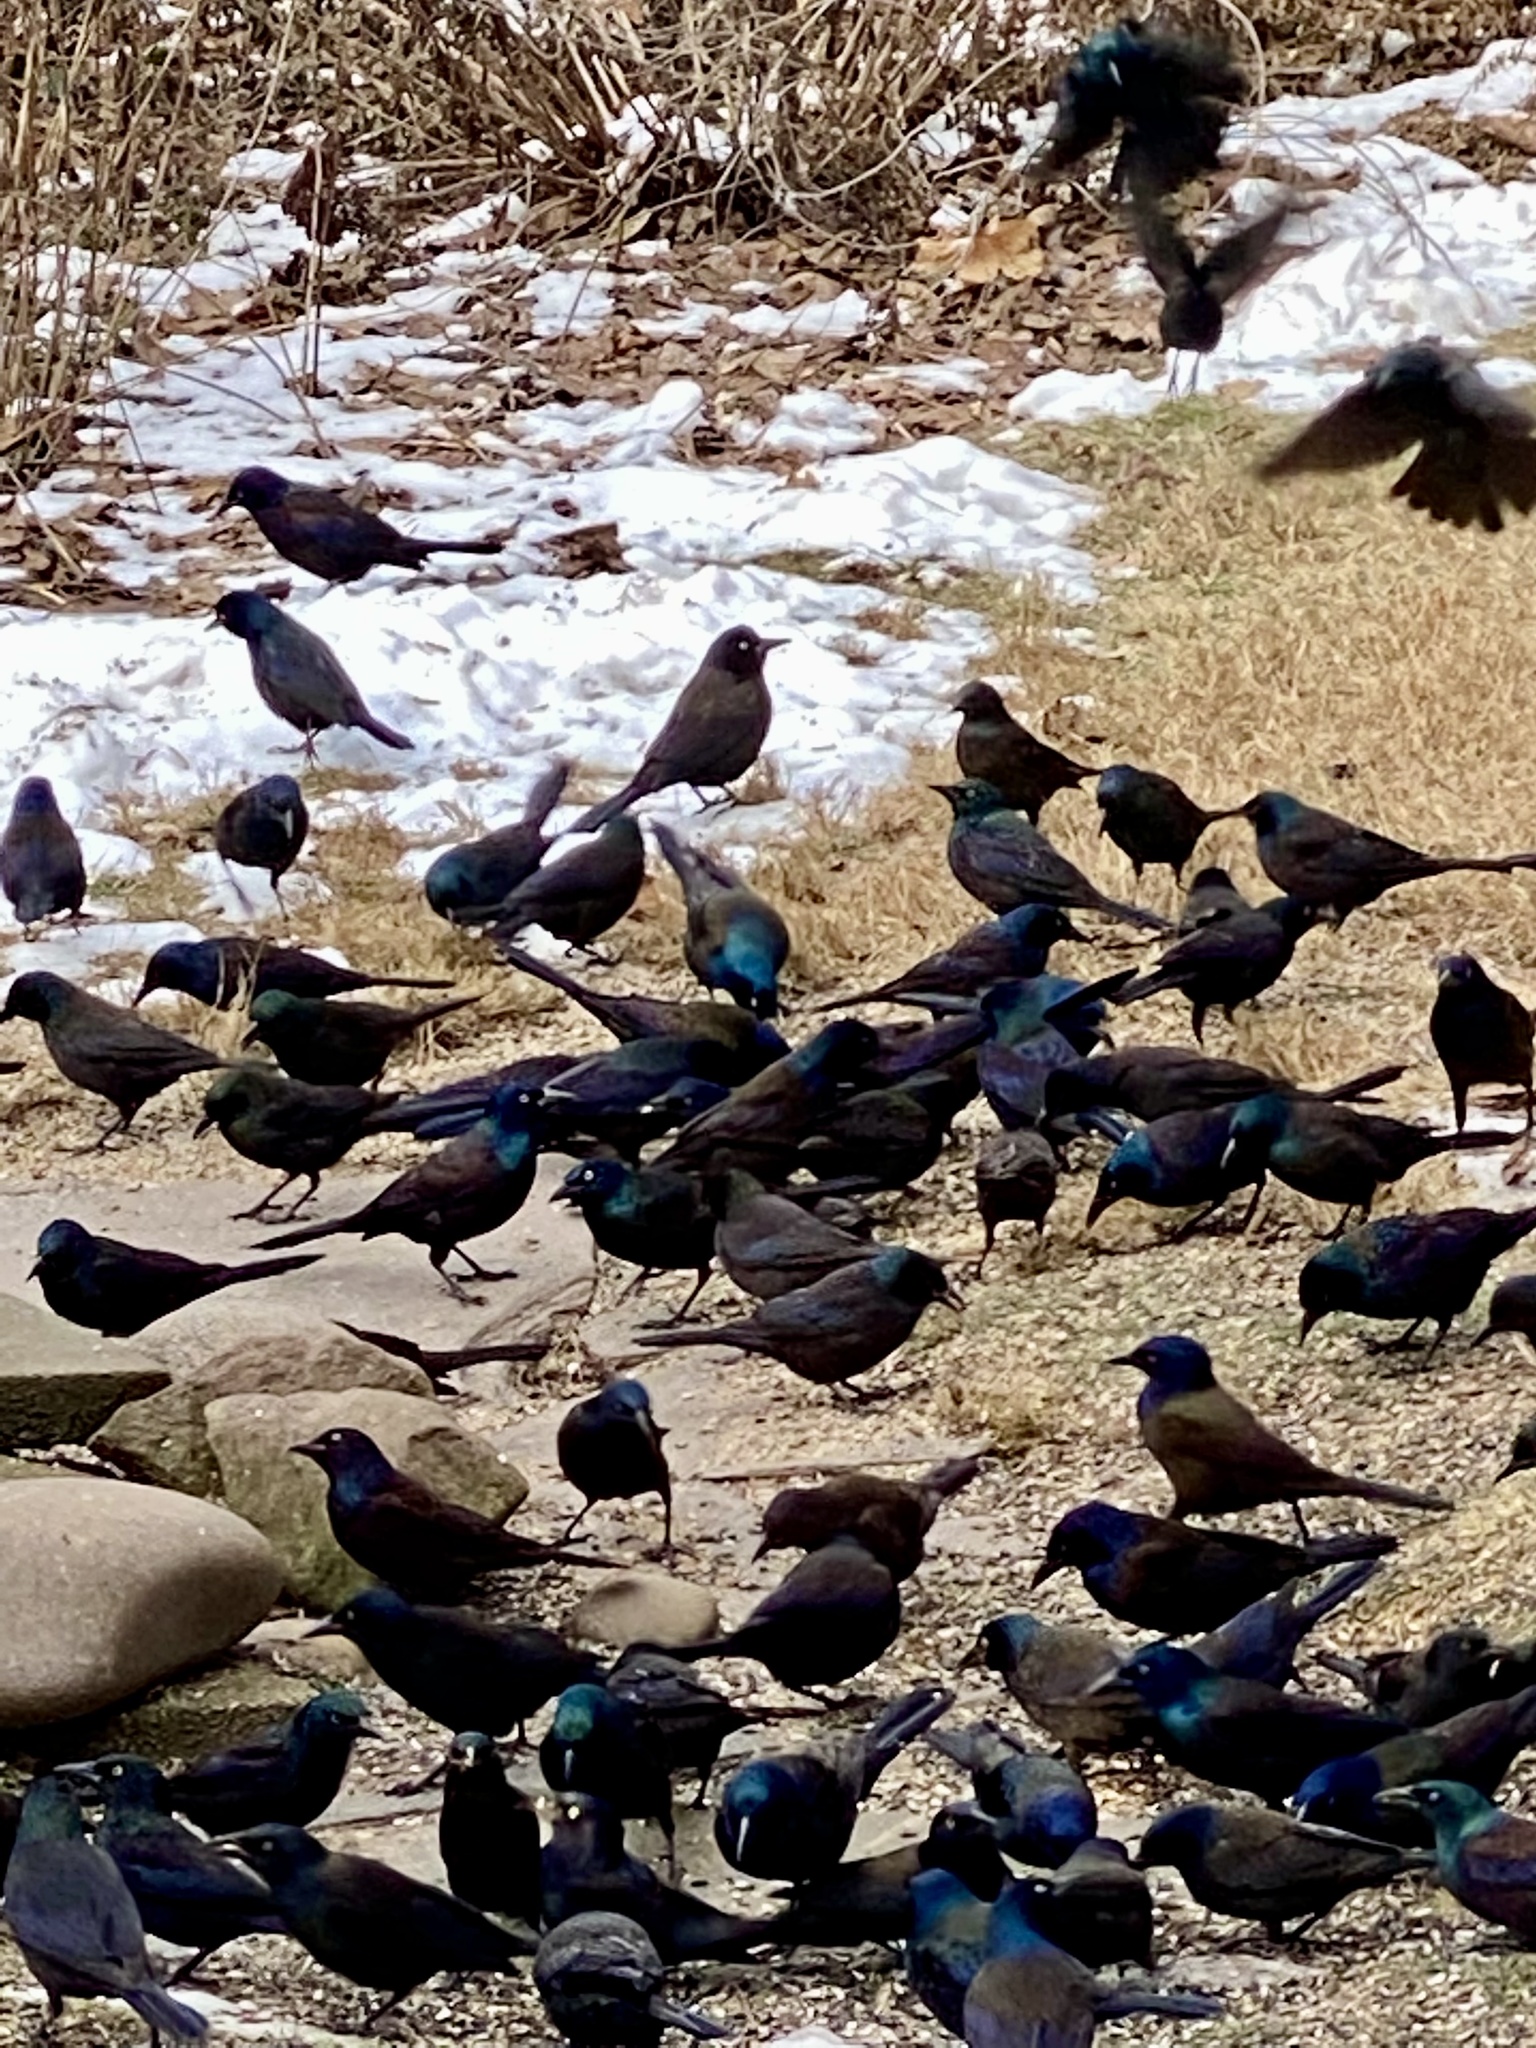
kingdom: Animalia
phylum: Chordata
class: Aves
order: Passeriformes
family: Icteridae
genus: Quiscalus
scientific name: Quiscalus quiscula
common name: Common grackle
